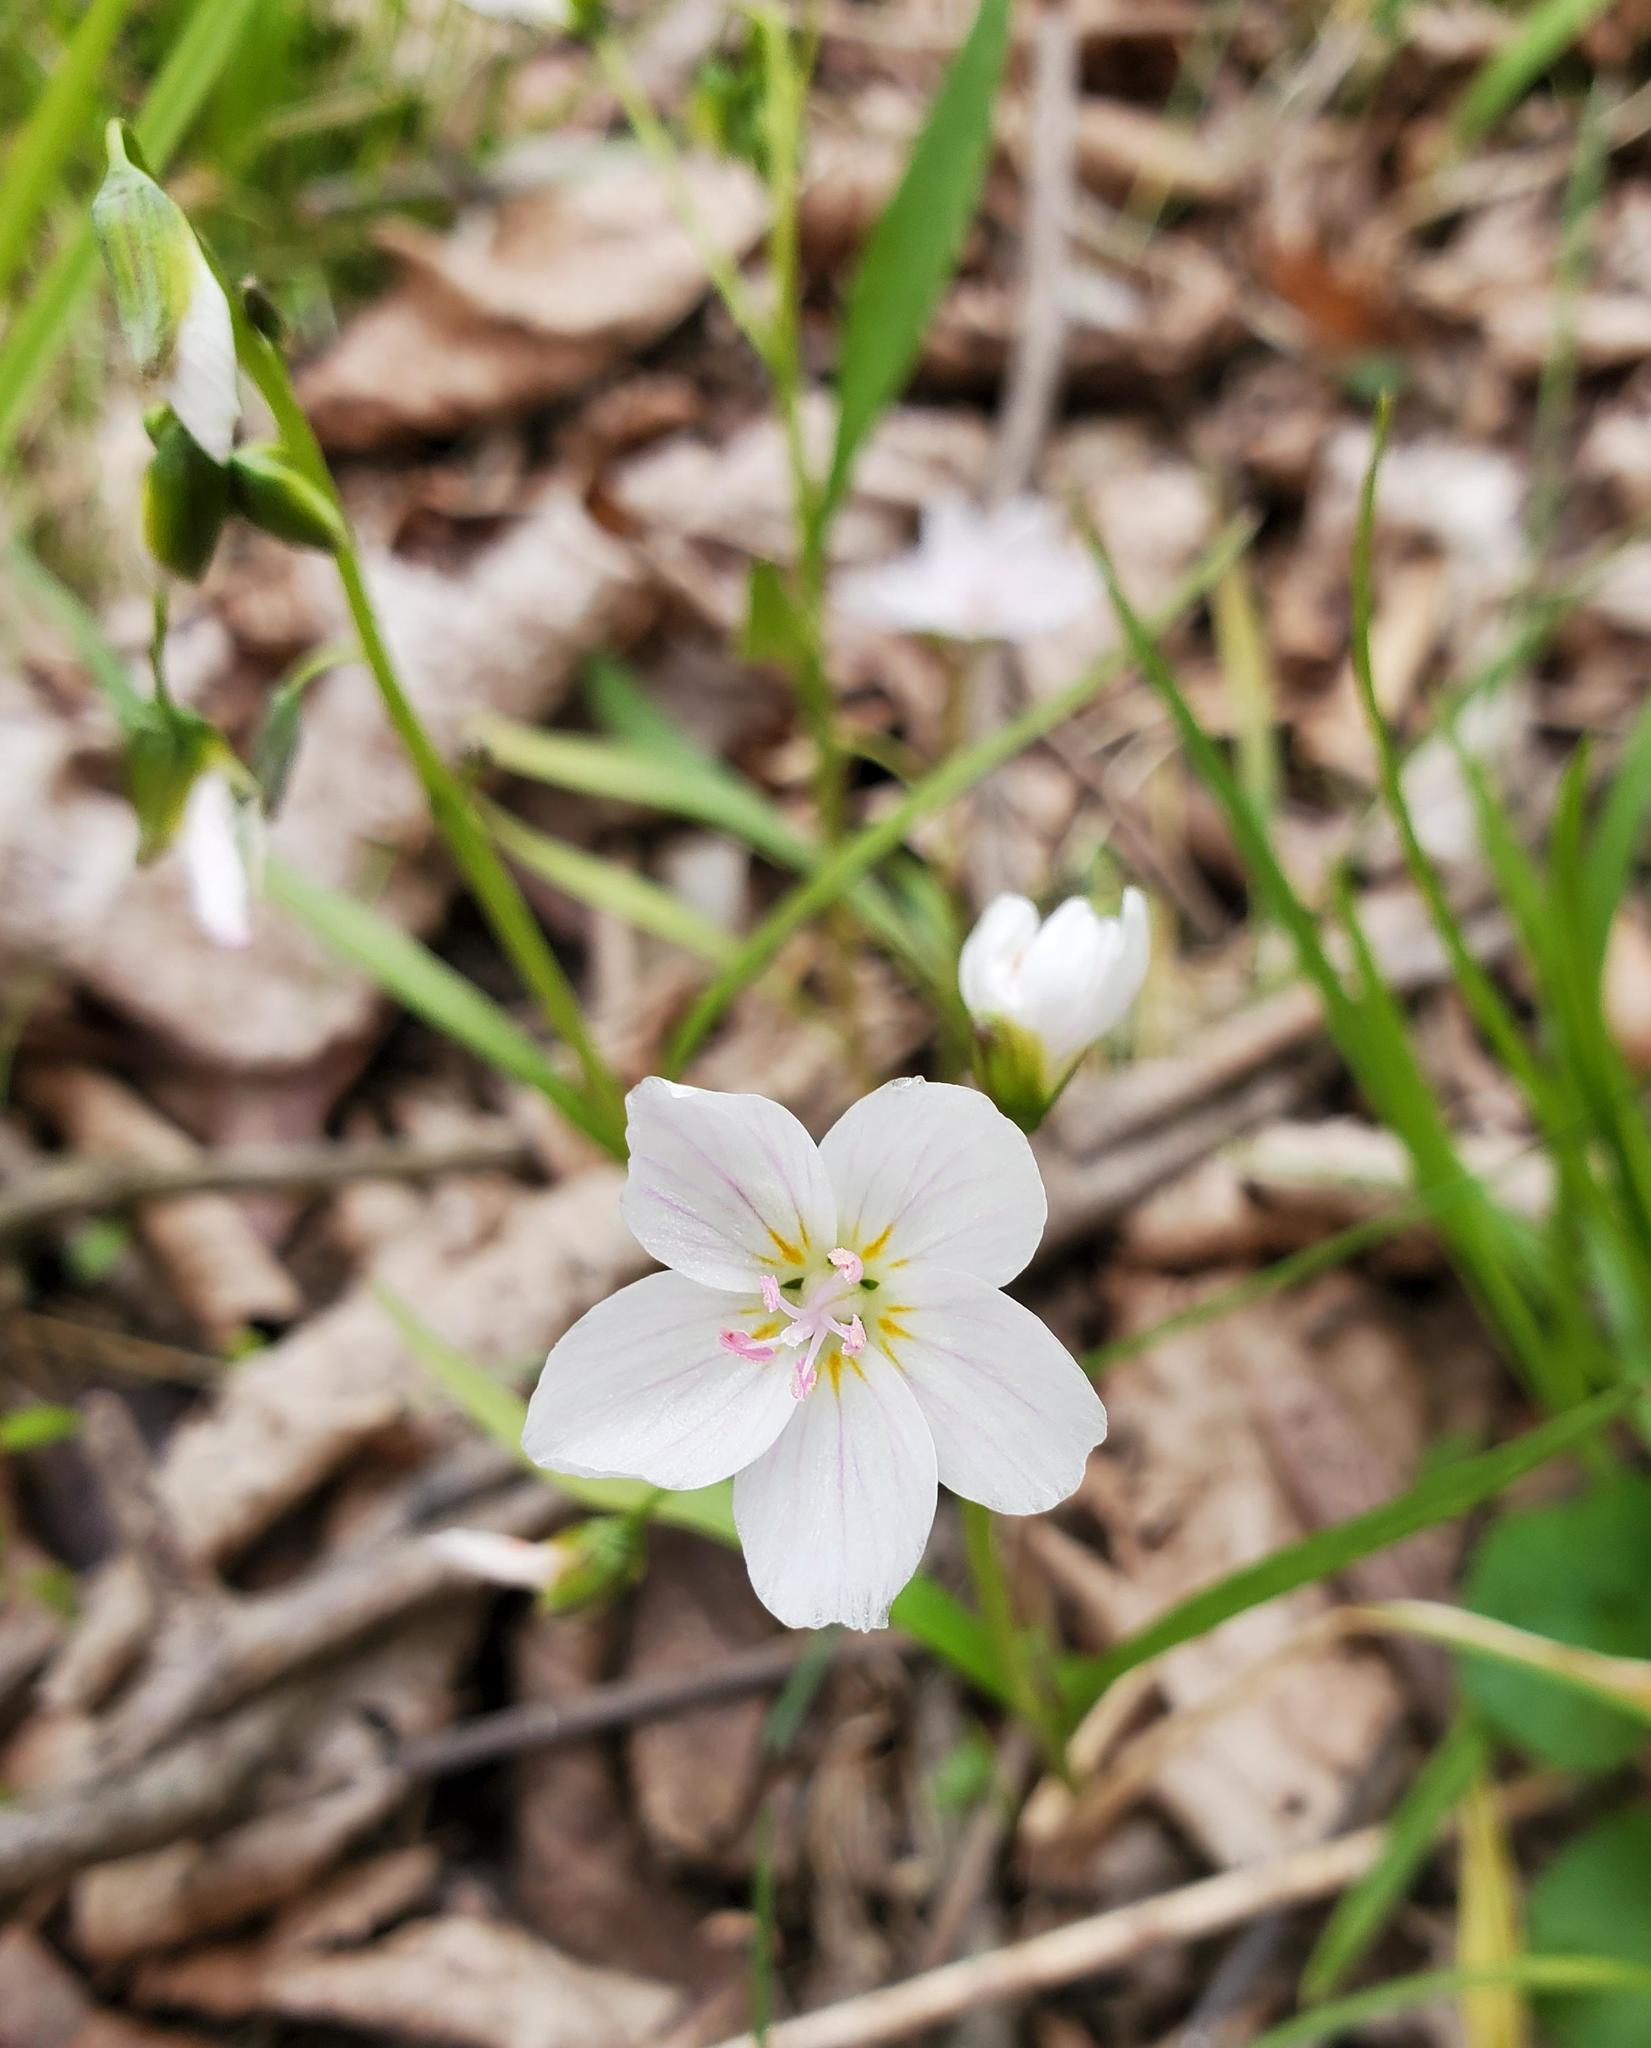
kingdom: Plantae
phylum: Tracheophyta
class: Magnoliopsida
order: Caryophyllales
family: Montiaceae
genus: Claytonia
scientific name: Claytonia virginica
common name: Virginia springbeauty
